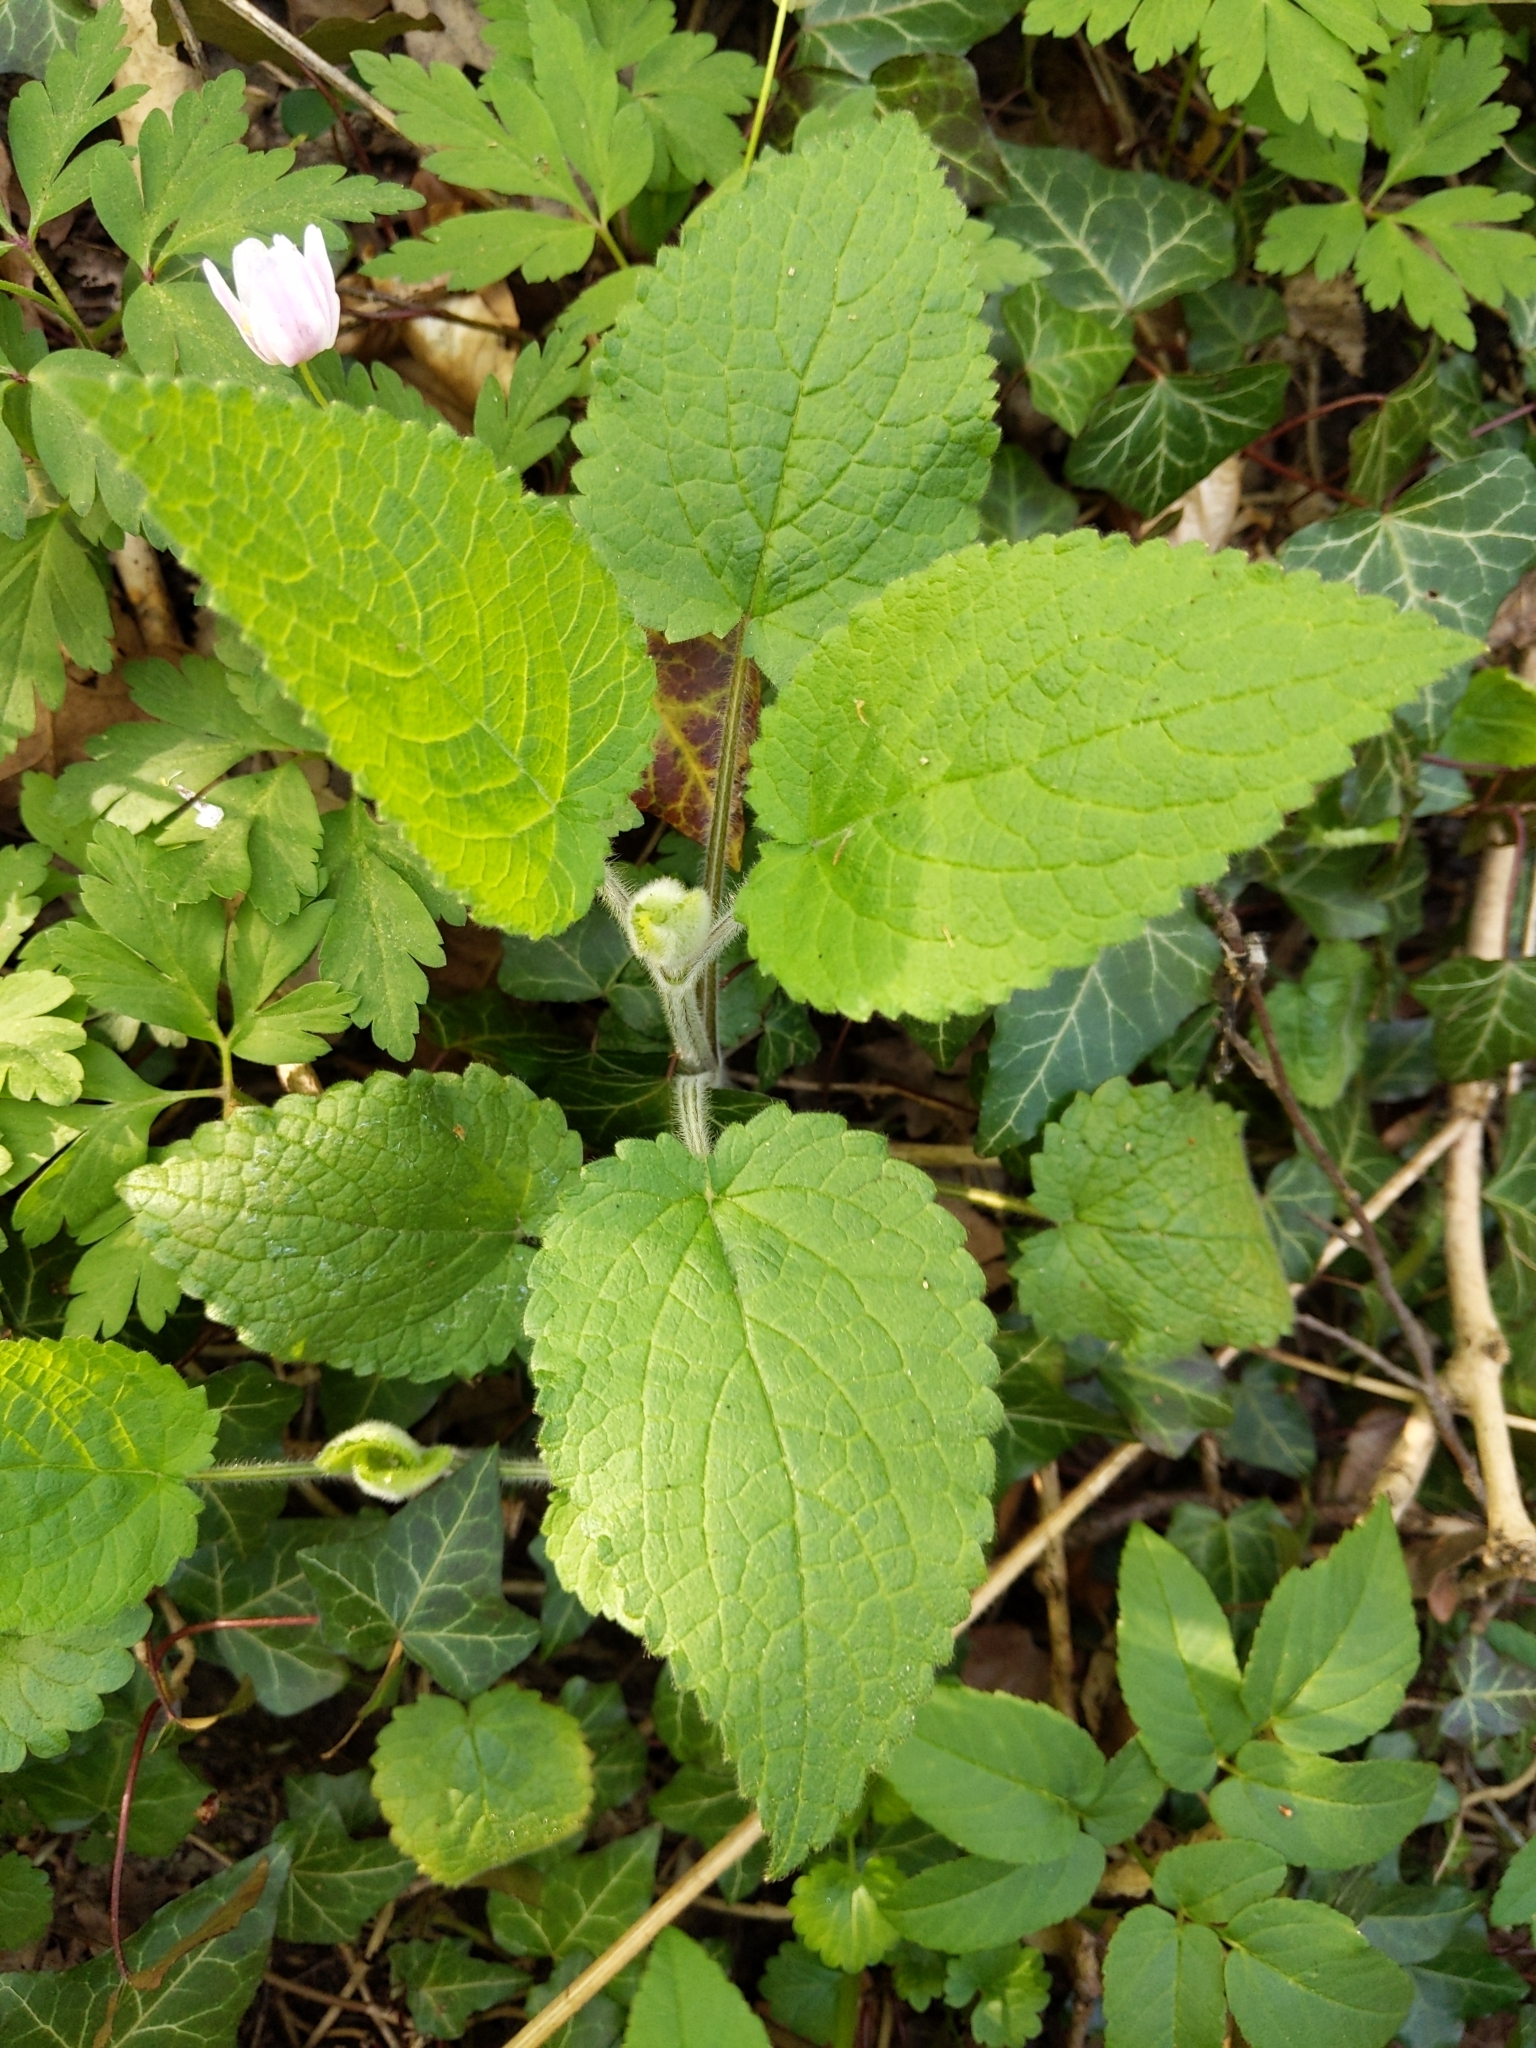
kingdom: Plantae
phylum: Tracheophyta
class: Magnoliopsida
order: Lamiales
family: Lamiaceae
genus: Stachys
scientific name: Stachys sylvatica
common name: Hedge woundwort
